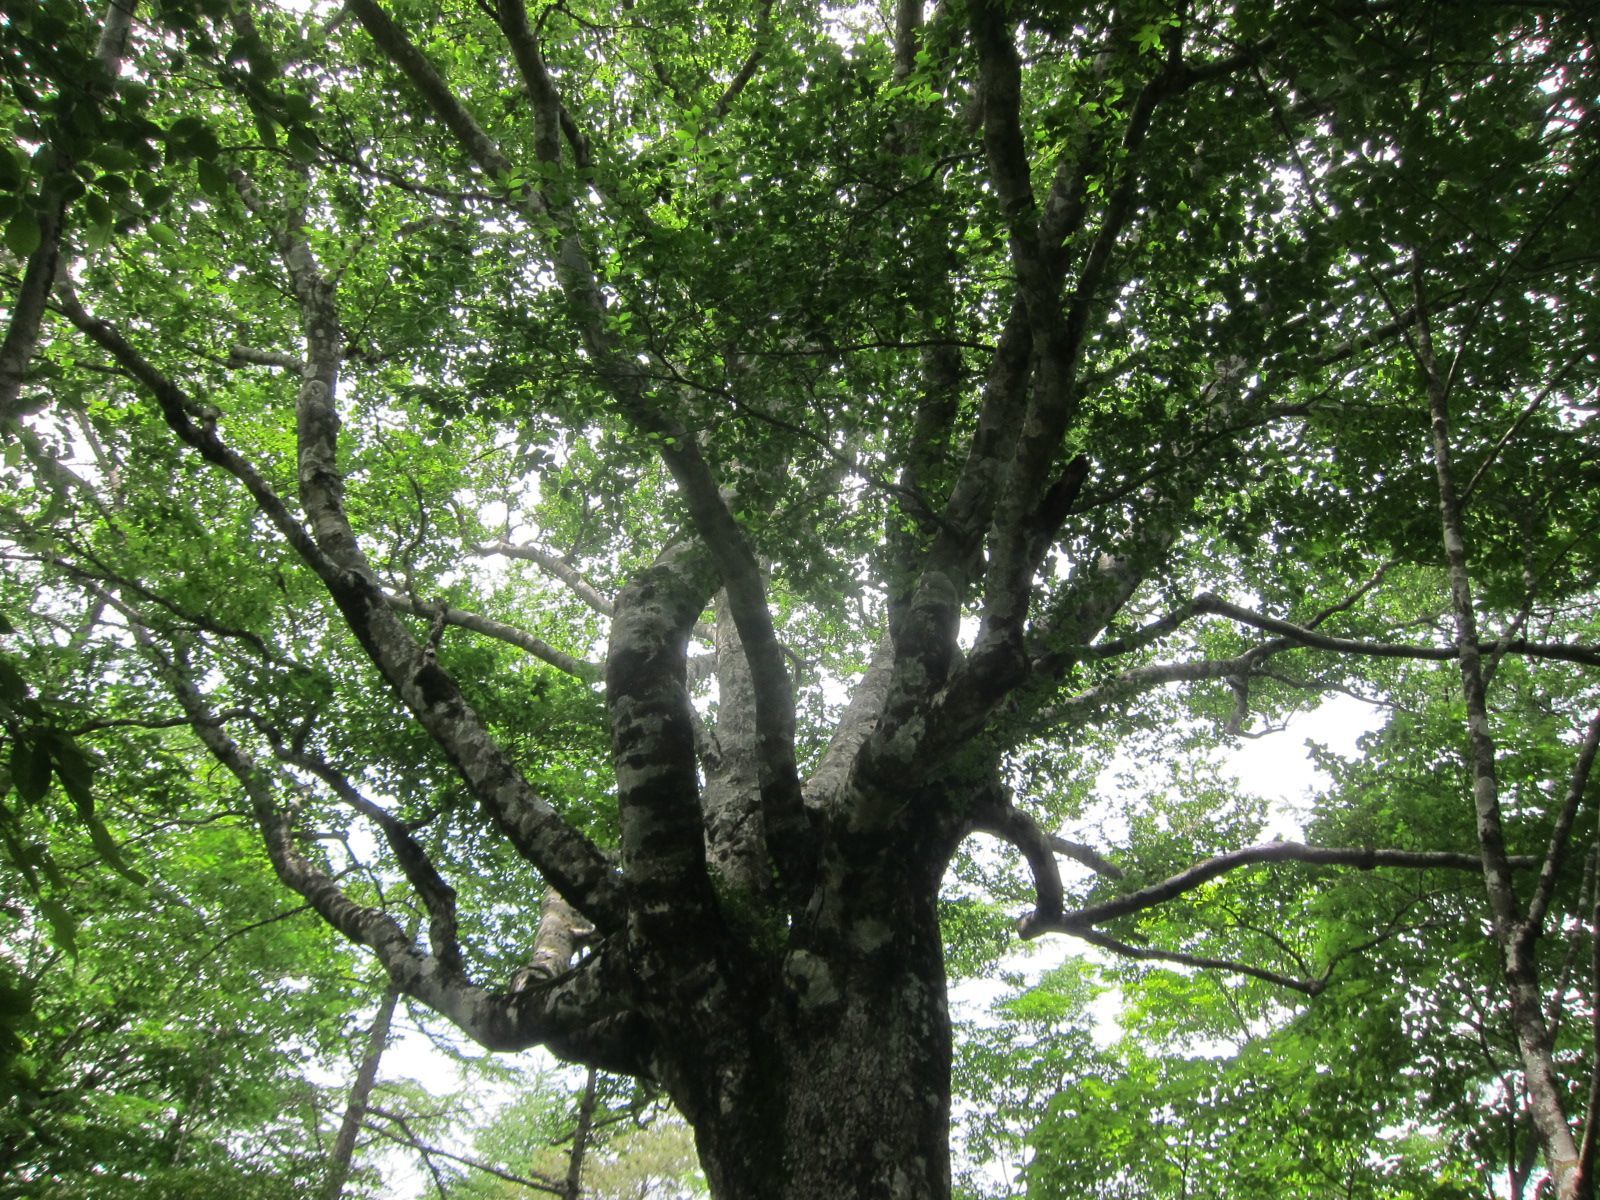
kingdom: Plantae
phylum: Tracheophyta
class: Magnoliopsida
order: Fagales
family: Fagaceae
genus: Fagus
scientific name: Fagus crenata
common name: Japanese beech
